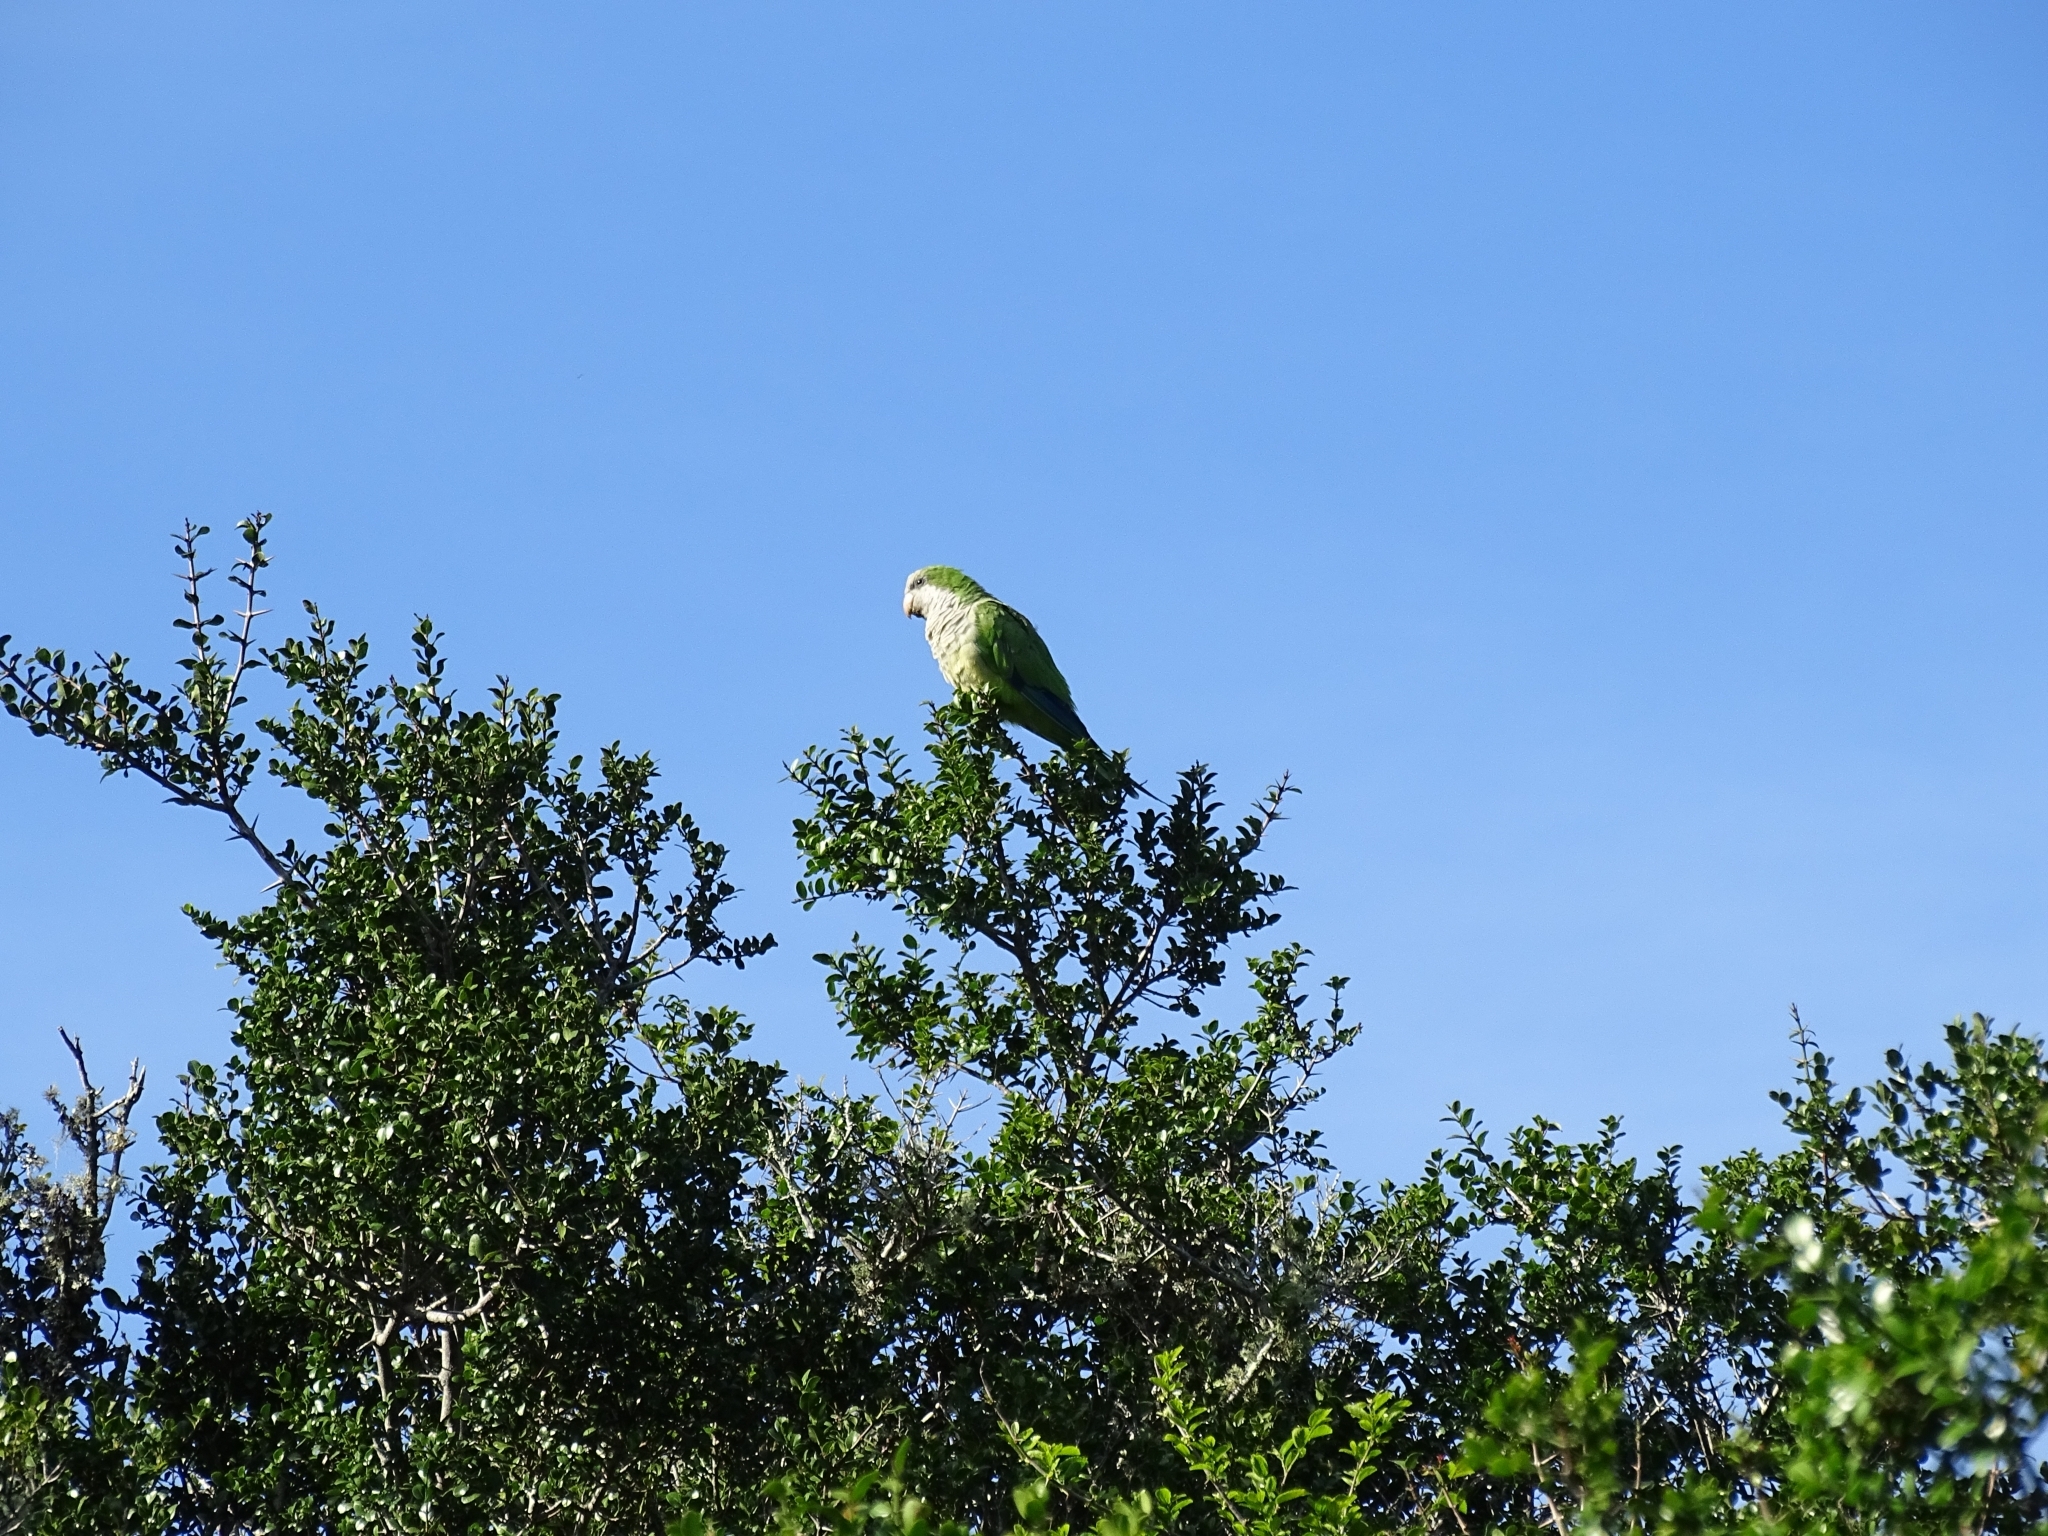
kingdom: Animalia
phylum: Chordata
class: Aves
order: Psittaciformes
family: Psittacidae
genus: Myiopsitta
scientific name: Myiopsitta monachus
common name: Monk parakeet
